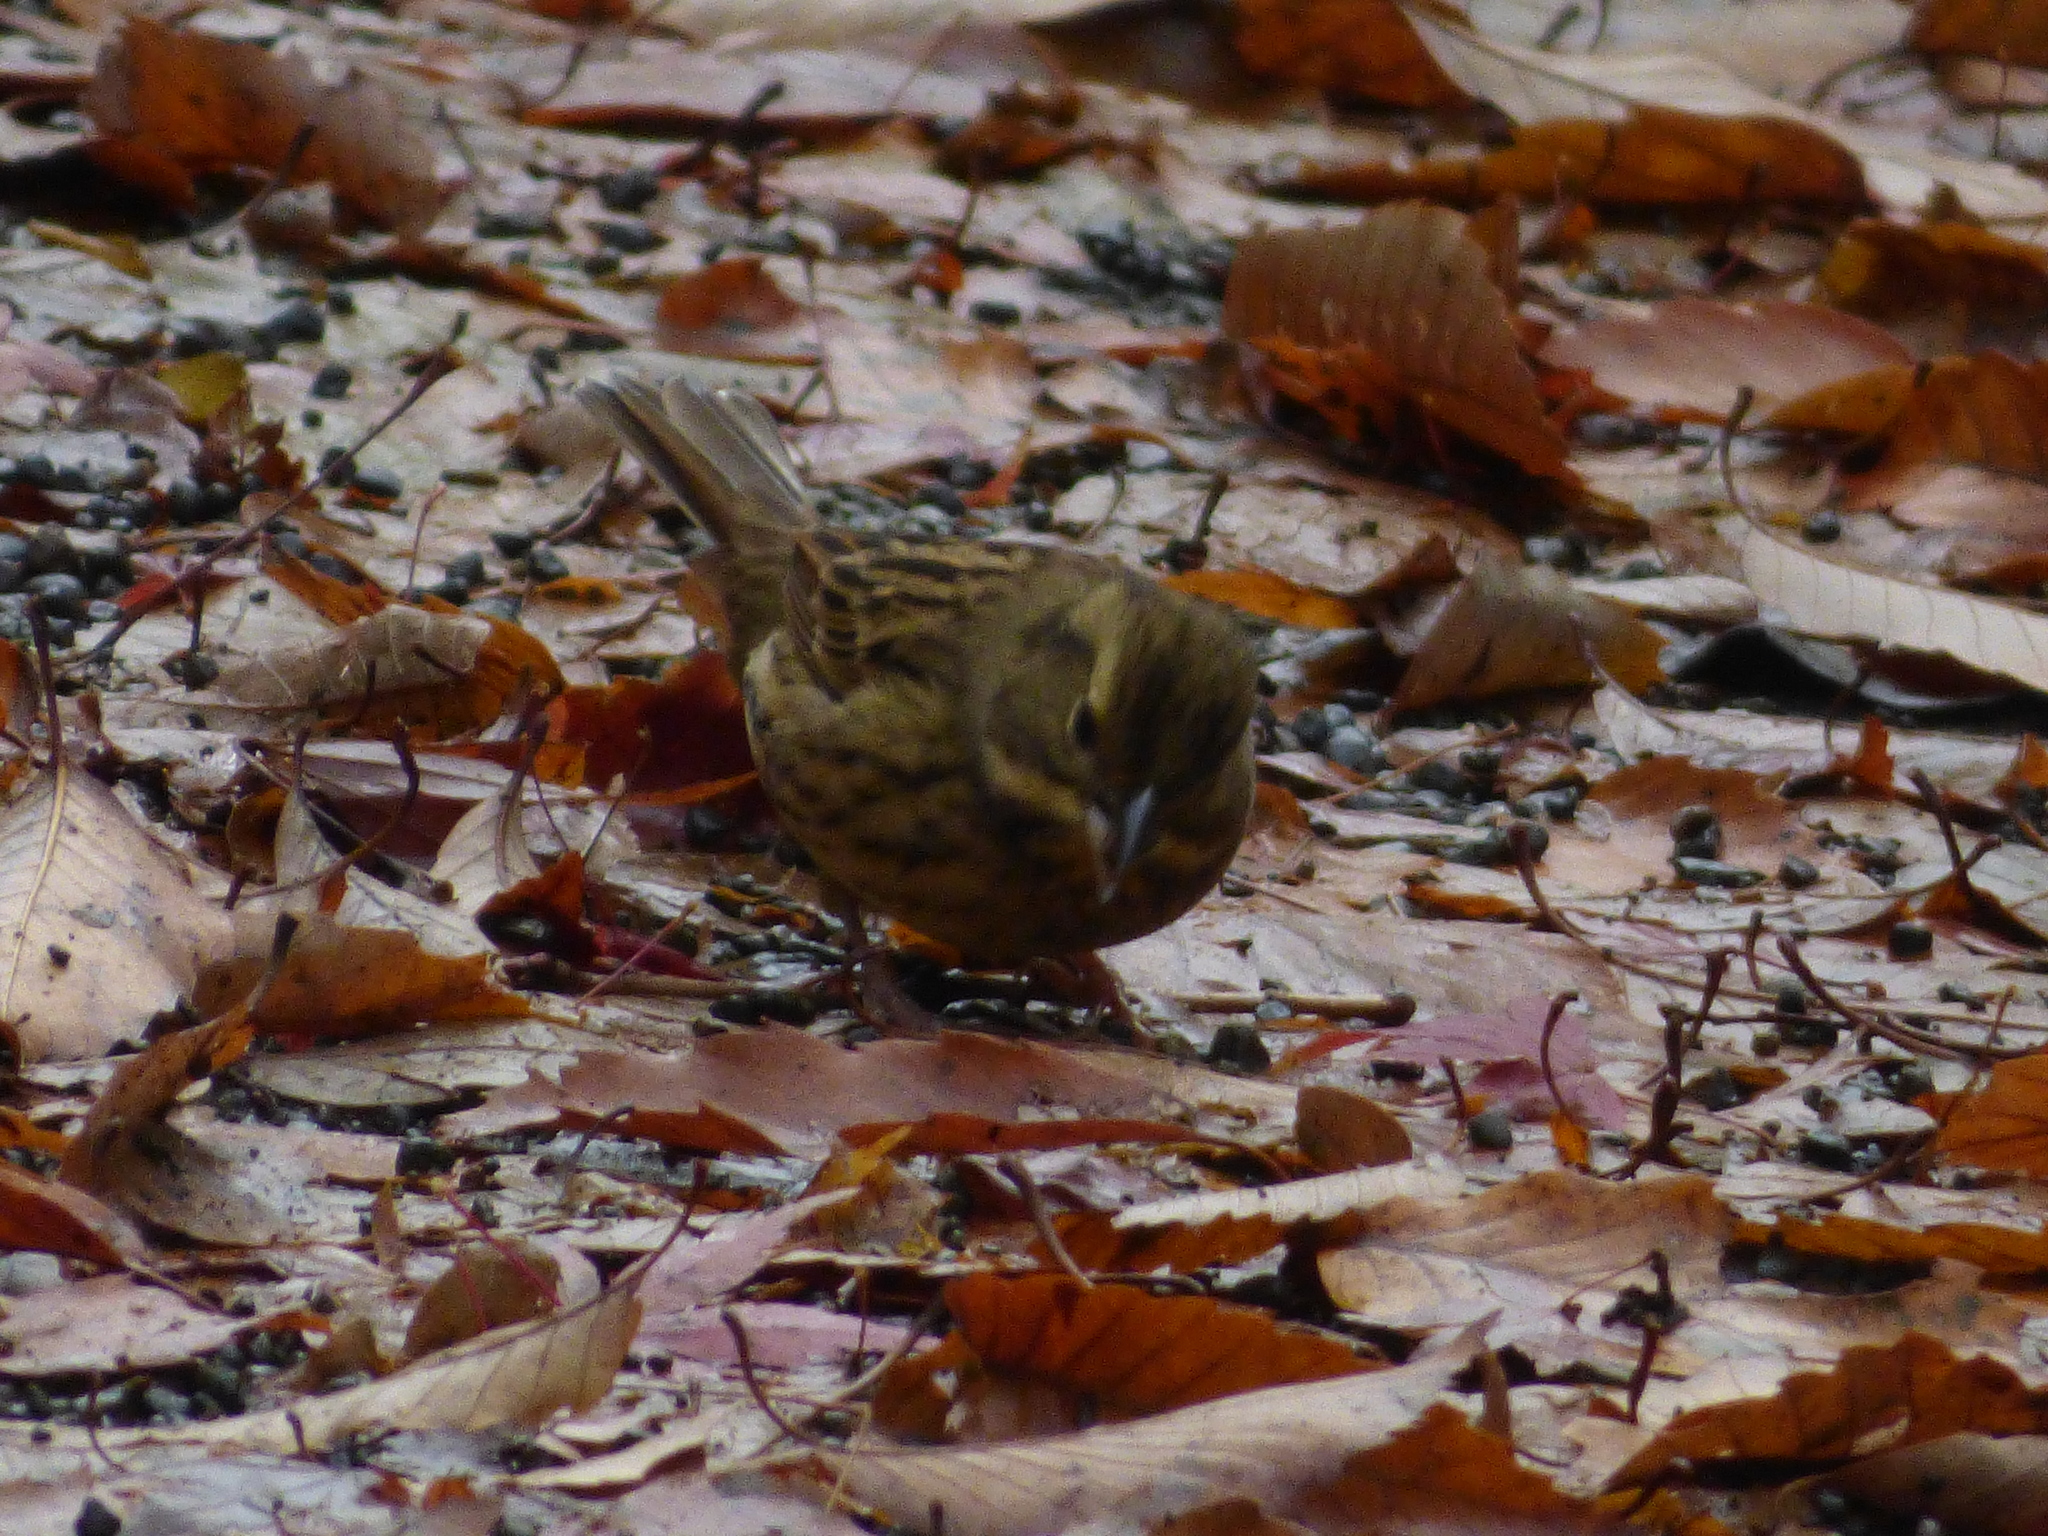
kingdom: Animalia
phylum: Chordata
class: Aves
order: Passeriformes
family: Emberizidae
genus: Emberiza
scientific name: Emberiza personata
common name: Masked bunting
